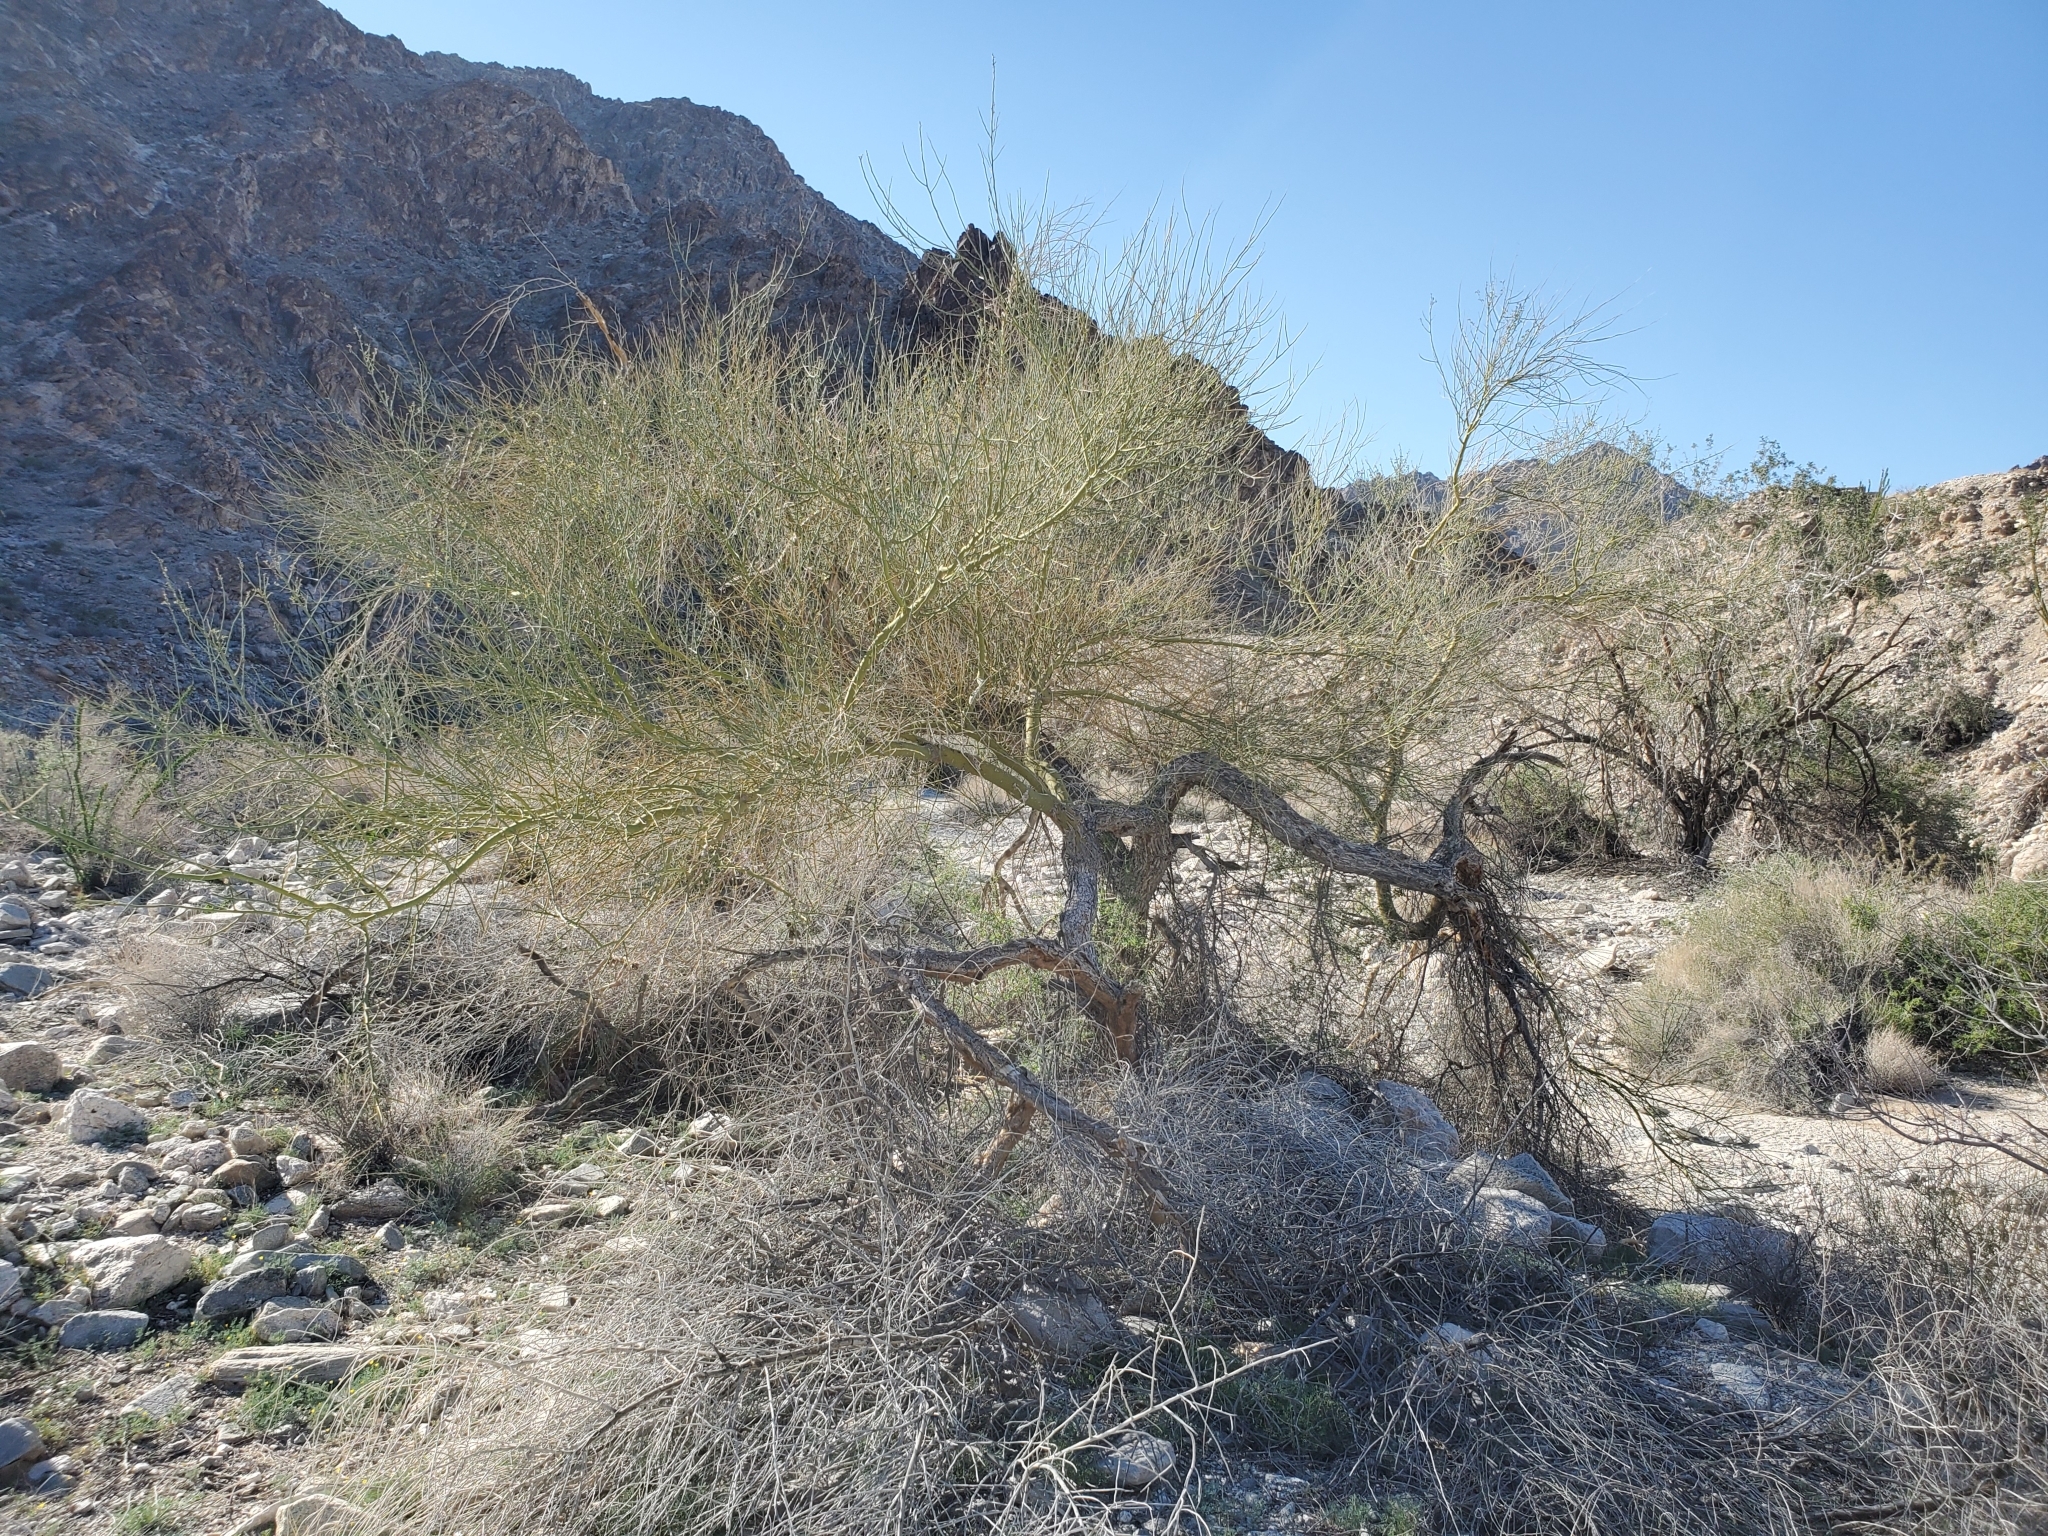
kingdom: Plantae
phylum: Tracheophyta
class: Magnoliopsida
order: Fabales
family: Fabaceae
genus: Parkinsonia
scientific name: Parkinsonia florida
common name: Blue paloverde
